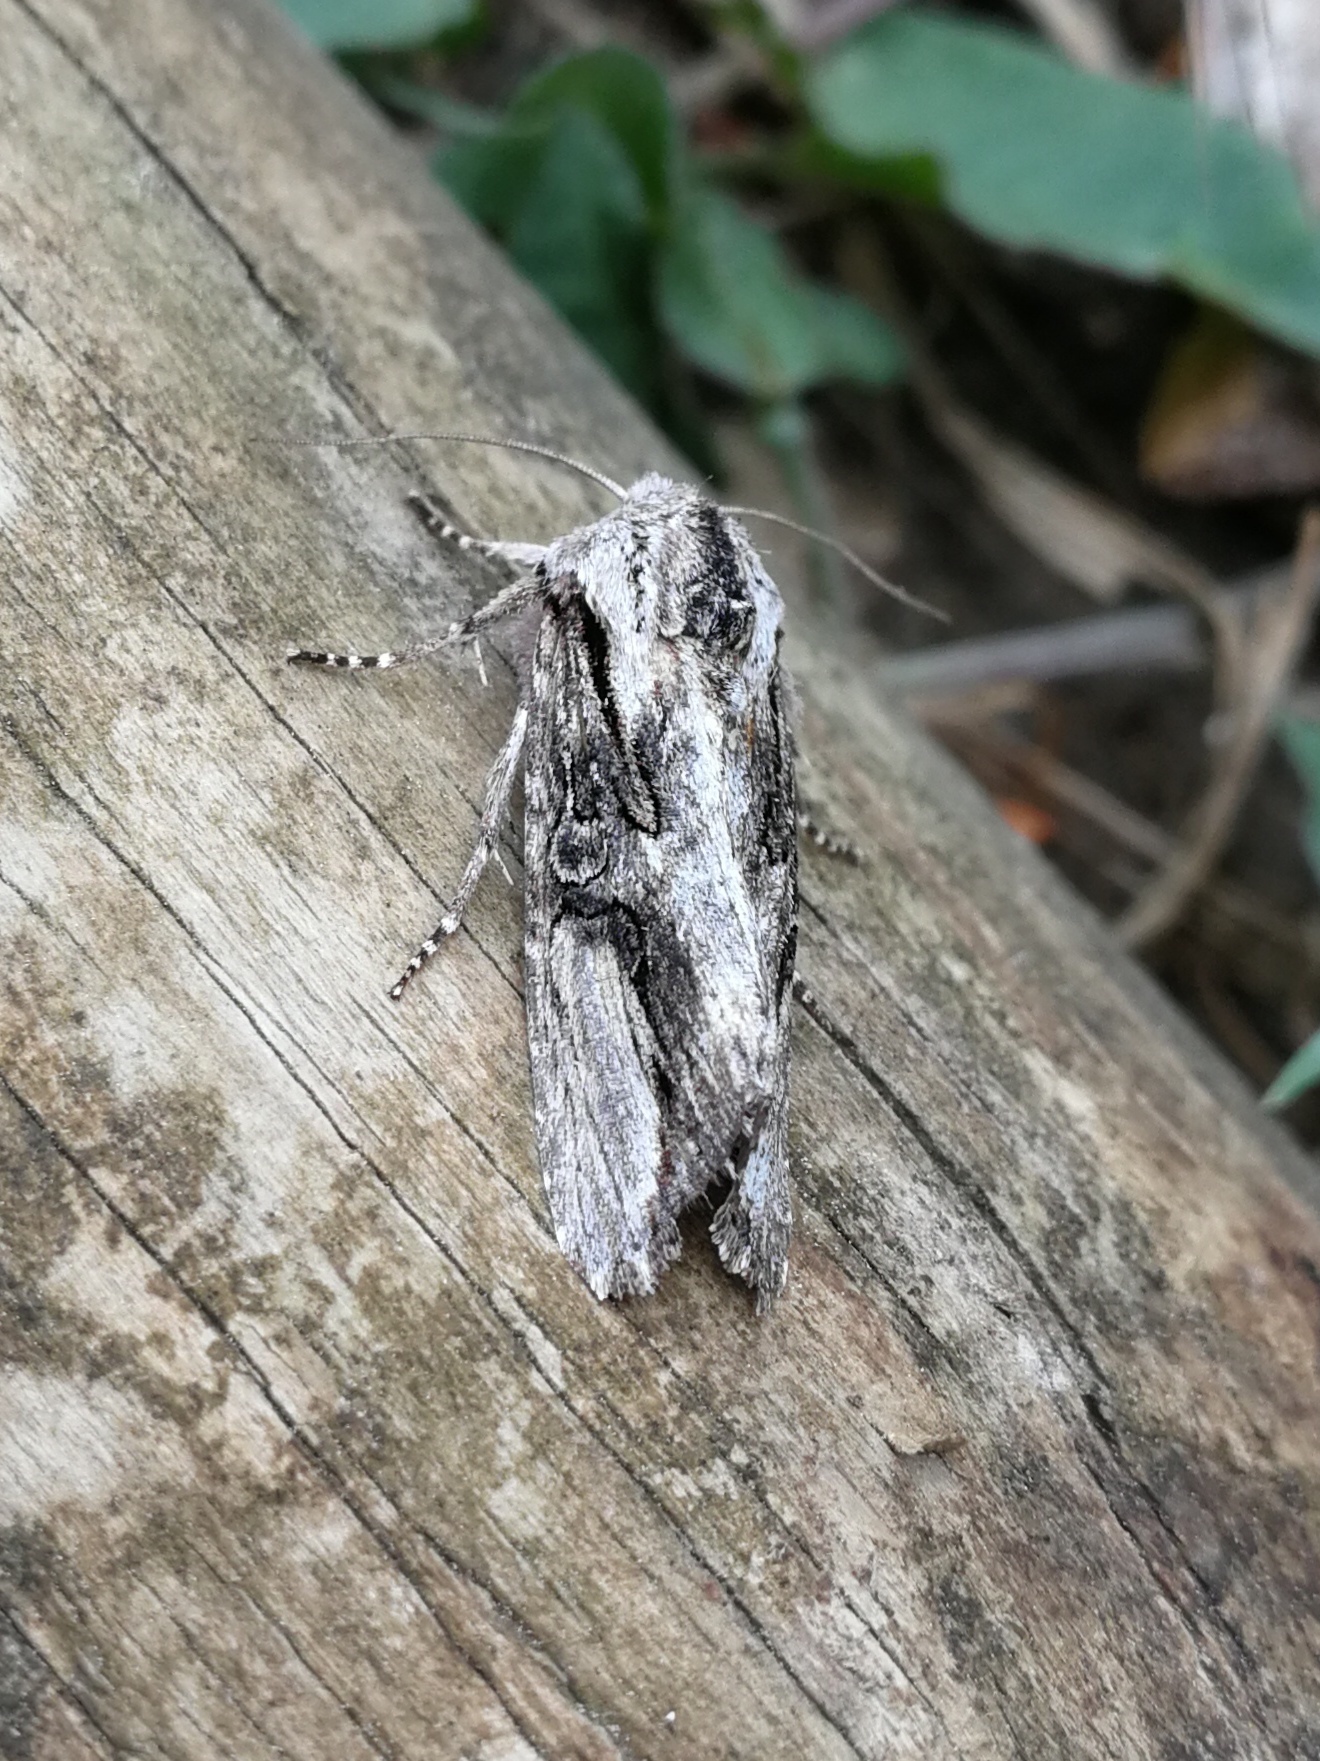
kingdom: Animalia
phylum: Arthropoda
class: Insecta
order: Lepidoptera
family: Noctuidae
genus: Egira
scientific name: Egira conspicillaris
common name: Silver cloud
